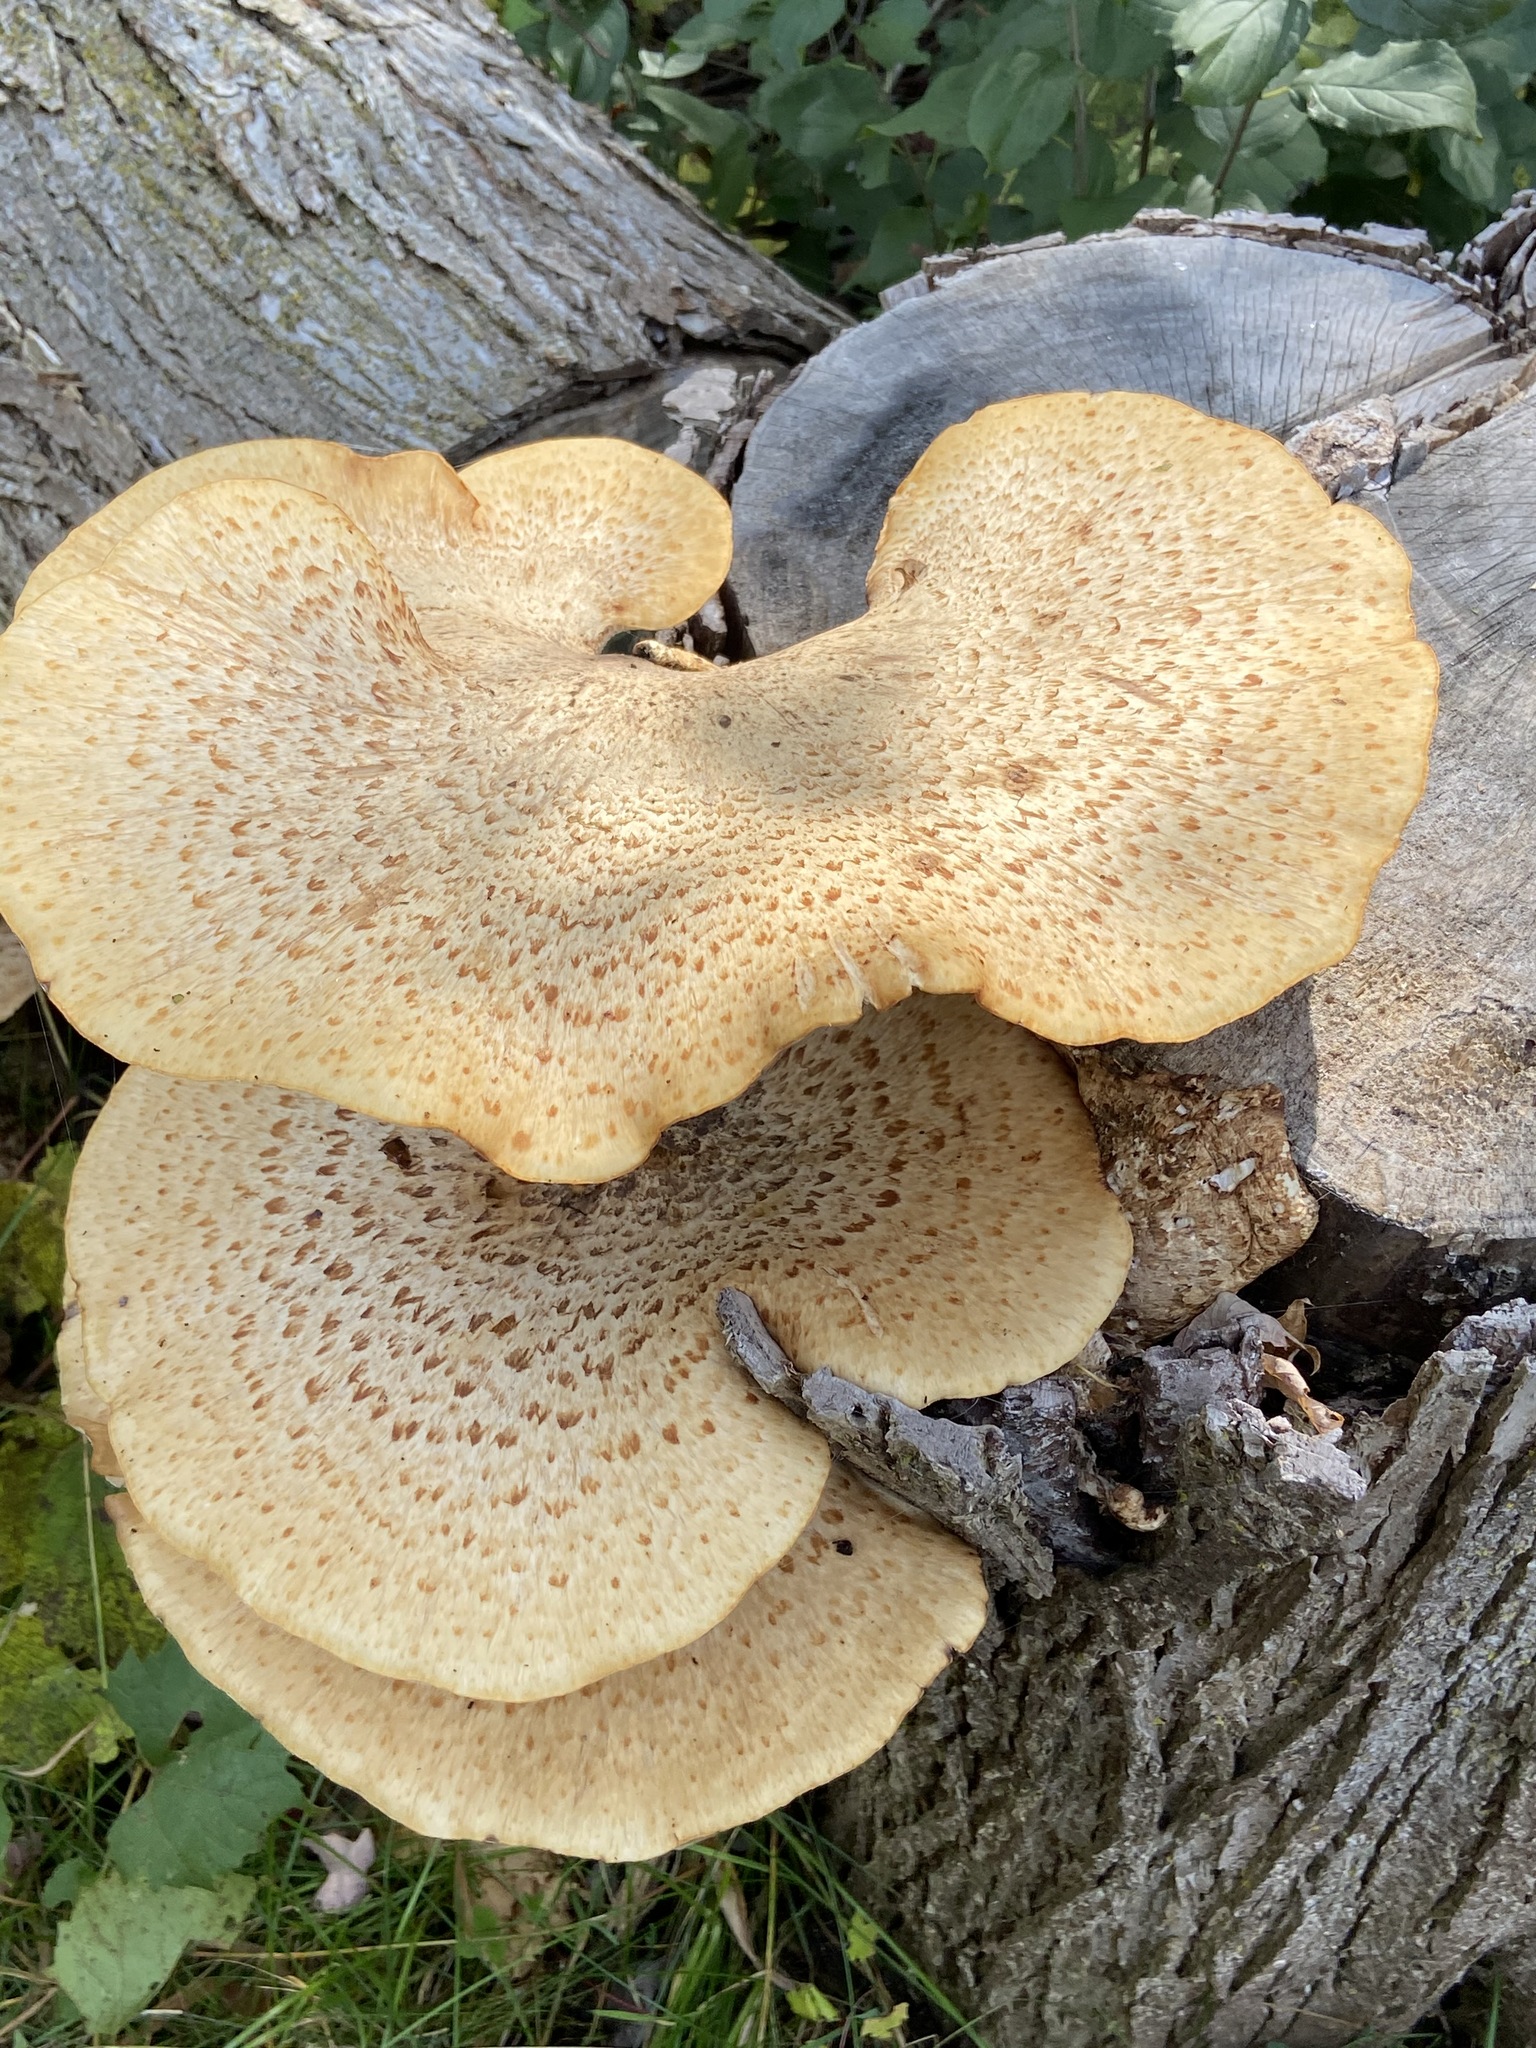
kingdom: Fungi
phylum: Basidiomycota
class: Agaricomycetes
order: Polyporales
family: Polyporaceae
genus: Cerioporus
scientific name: Cerioporus squamosus
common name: Dryad's saddle
